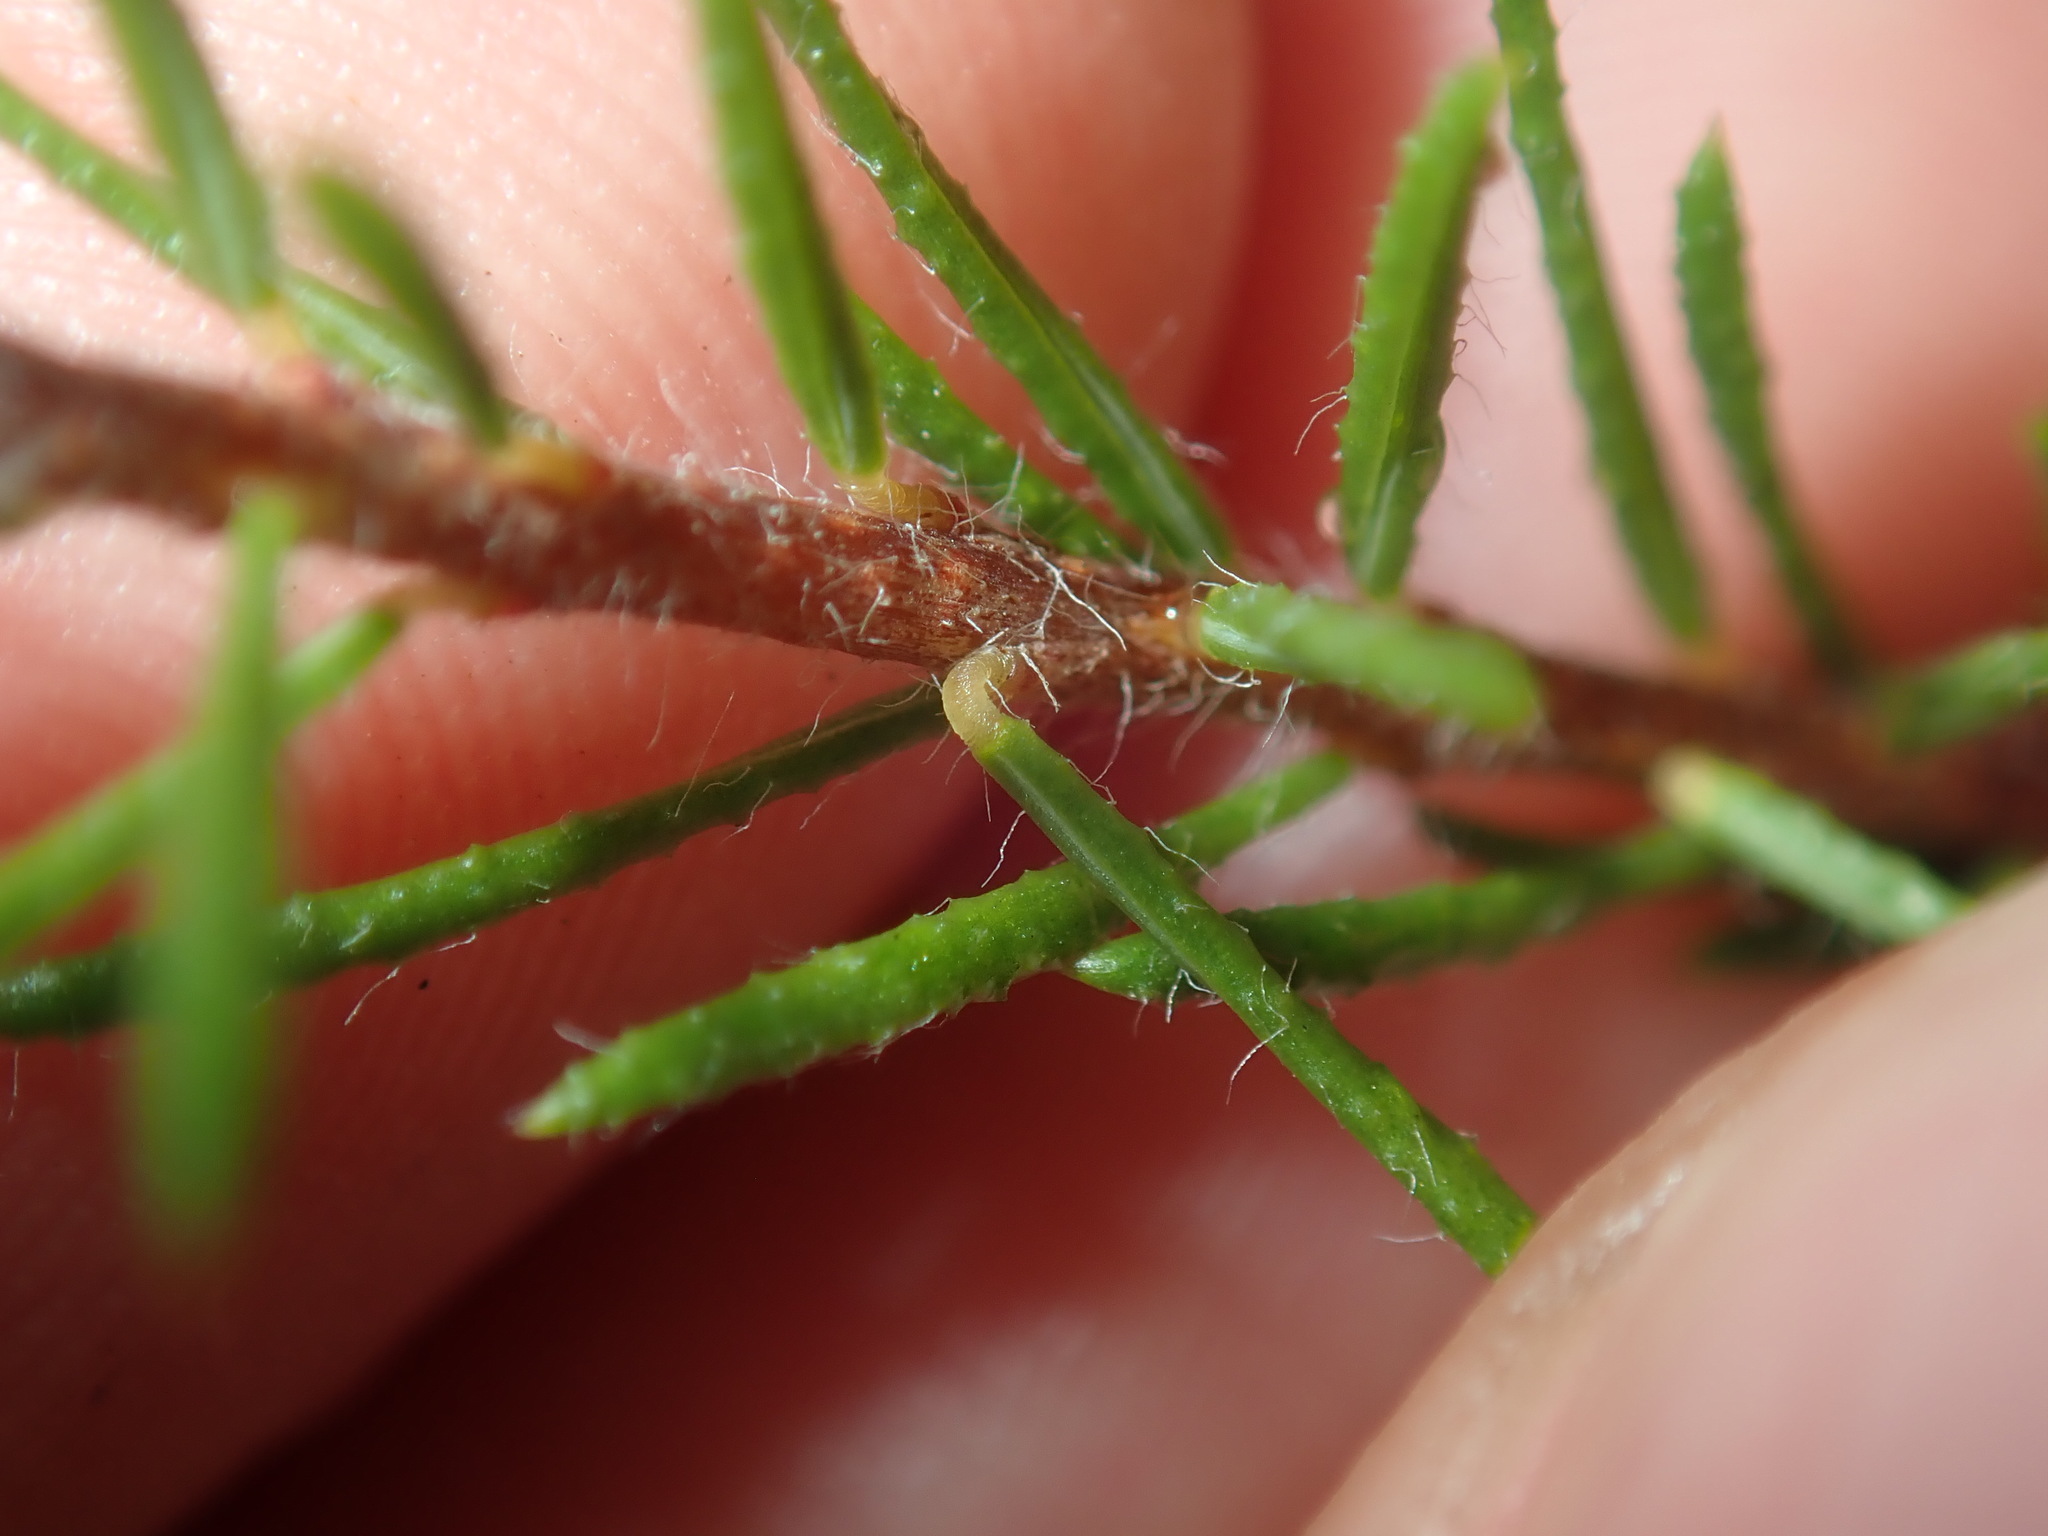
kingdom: Plantae
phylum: Tracheophyta
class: Magnoliopsida
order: Fabales
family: Fabaceae
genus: Dillwynia
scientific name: Dillwynia floribunda
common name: Eggs-and-bacon
